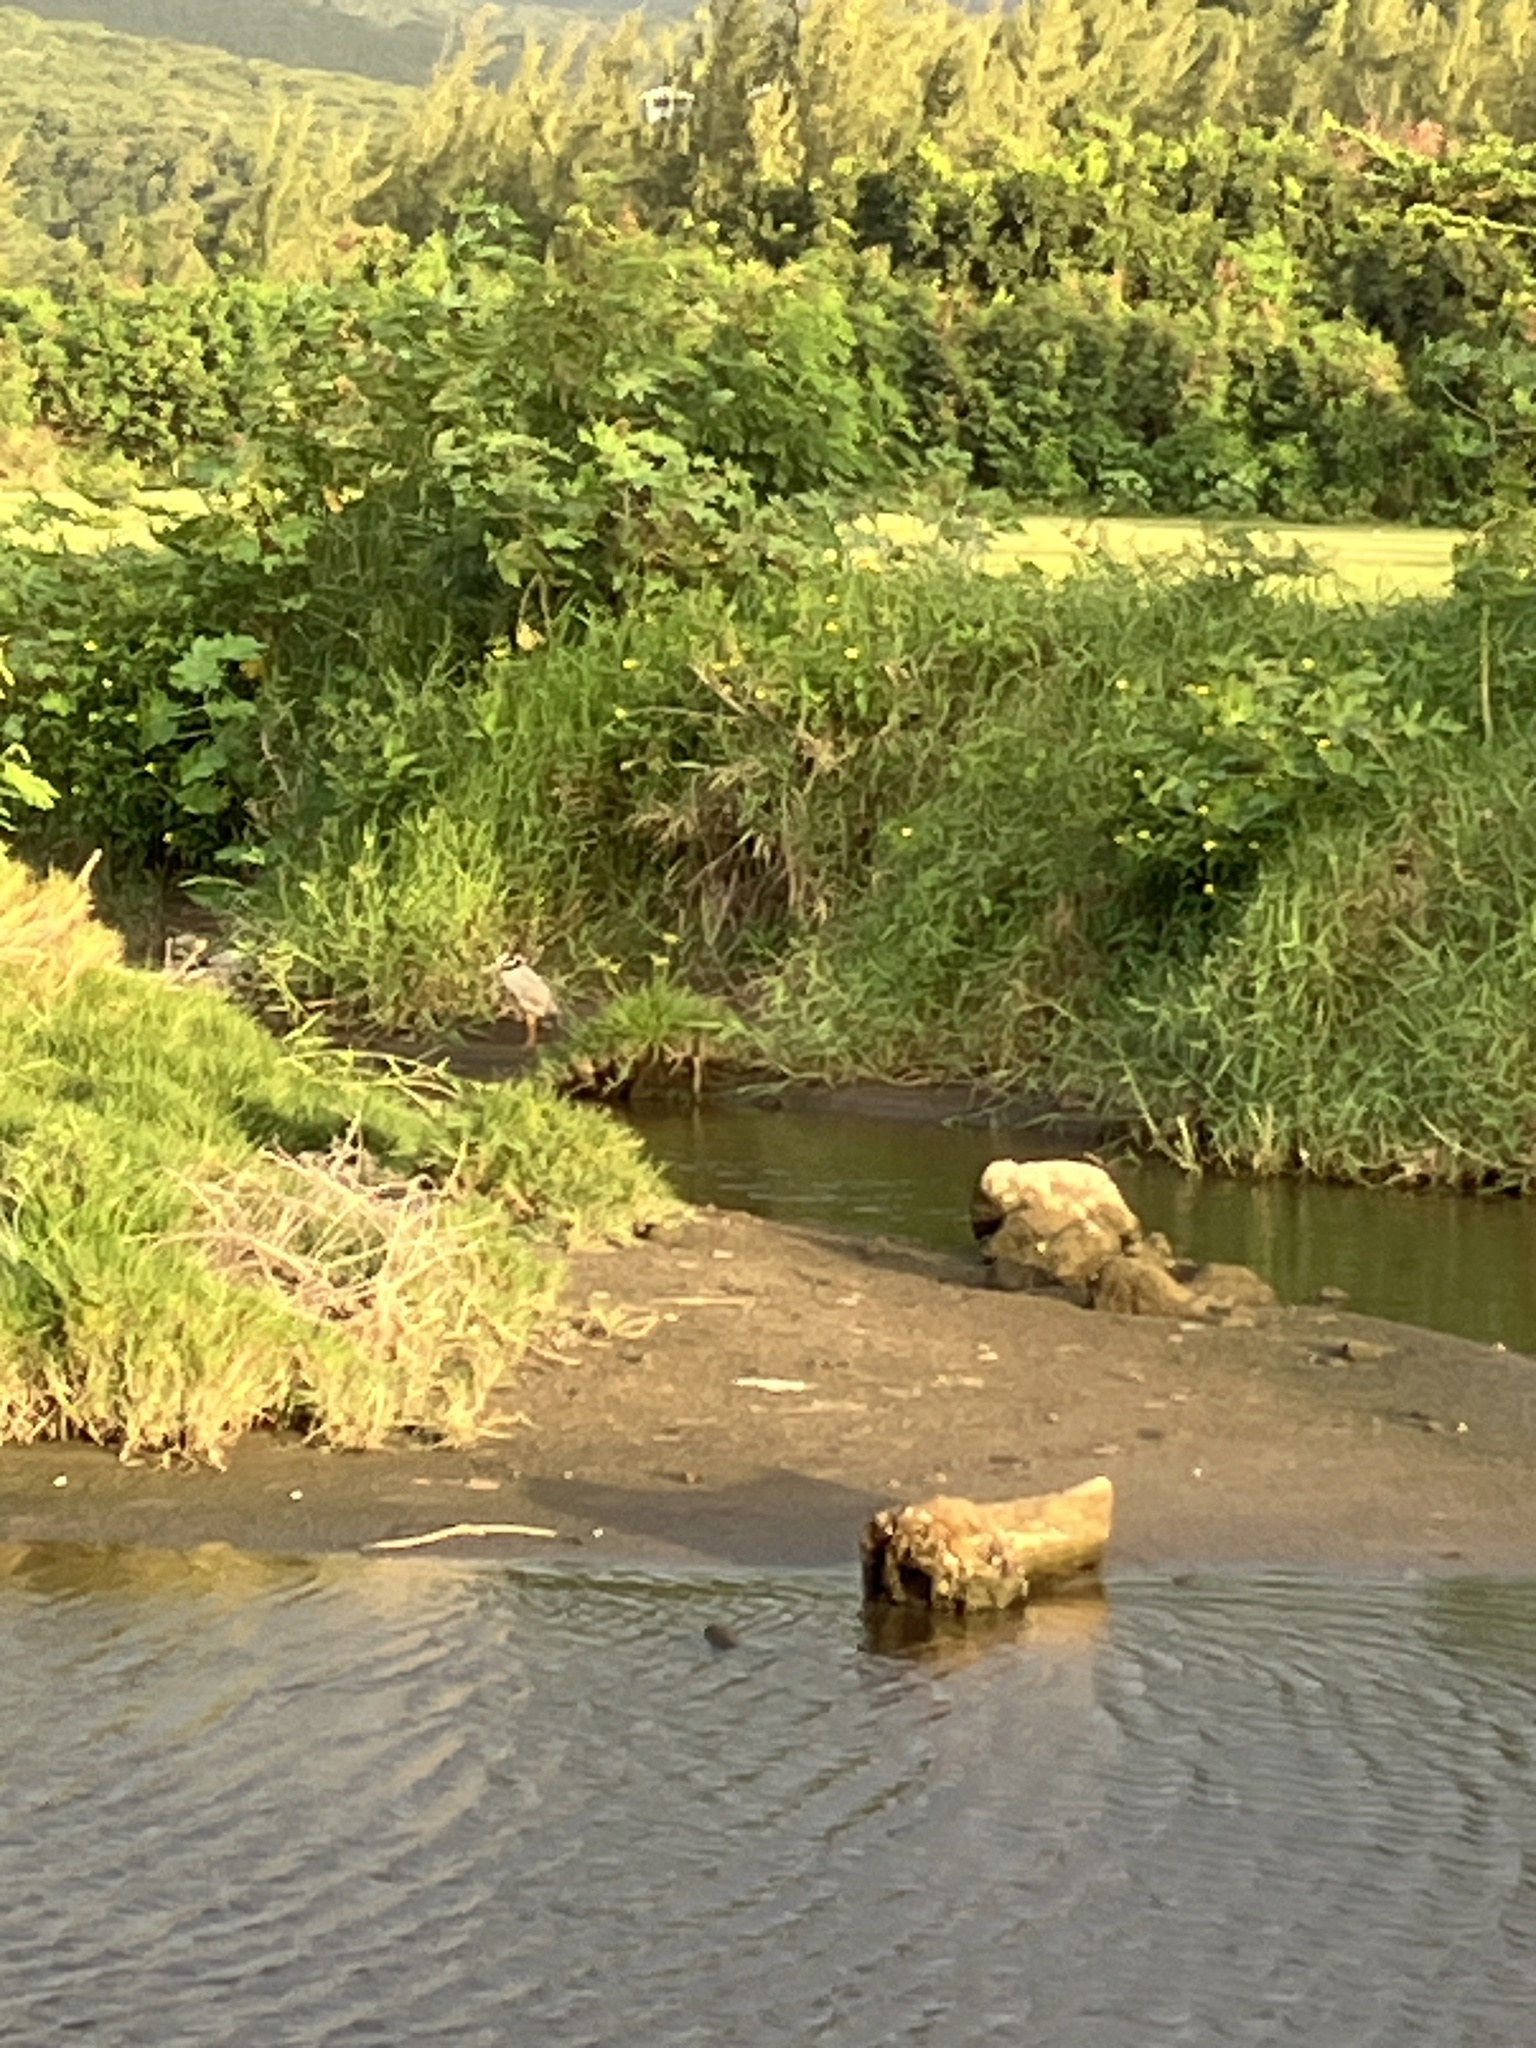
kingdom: Animalia
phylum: Chordata
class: Aves
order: Pelecaniformes
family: Ardeidae
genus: Nyctanassa
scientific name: Nyctanassa violacea
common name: Yellow-crowned night heron
